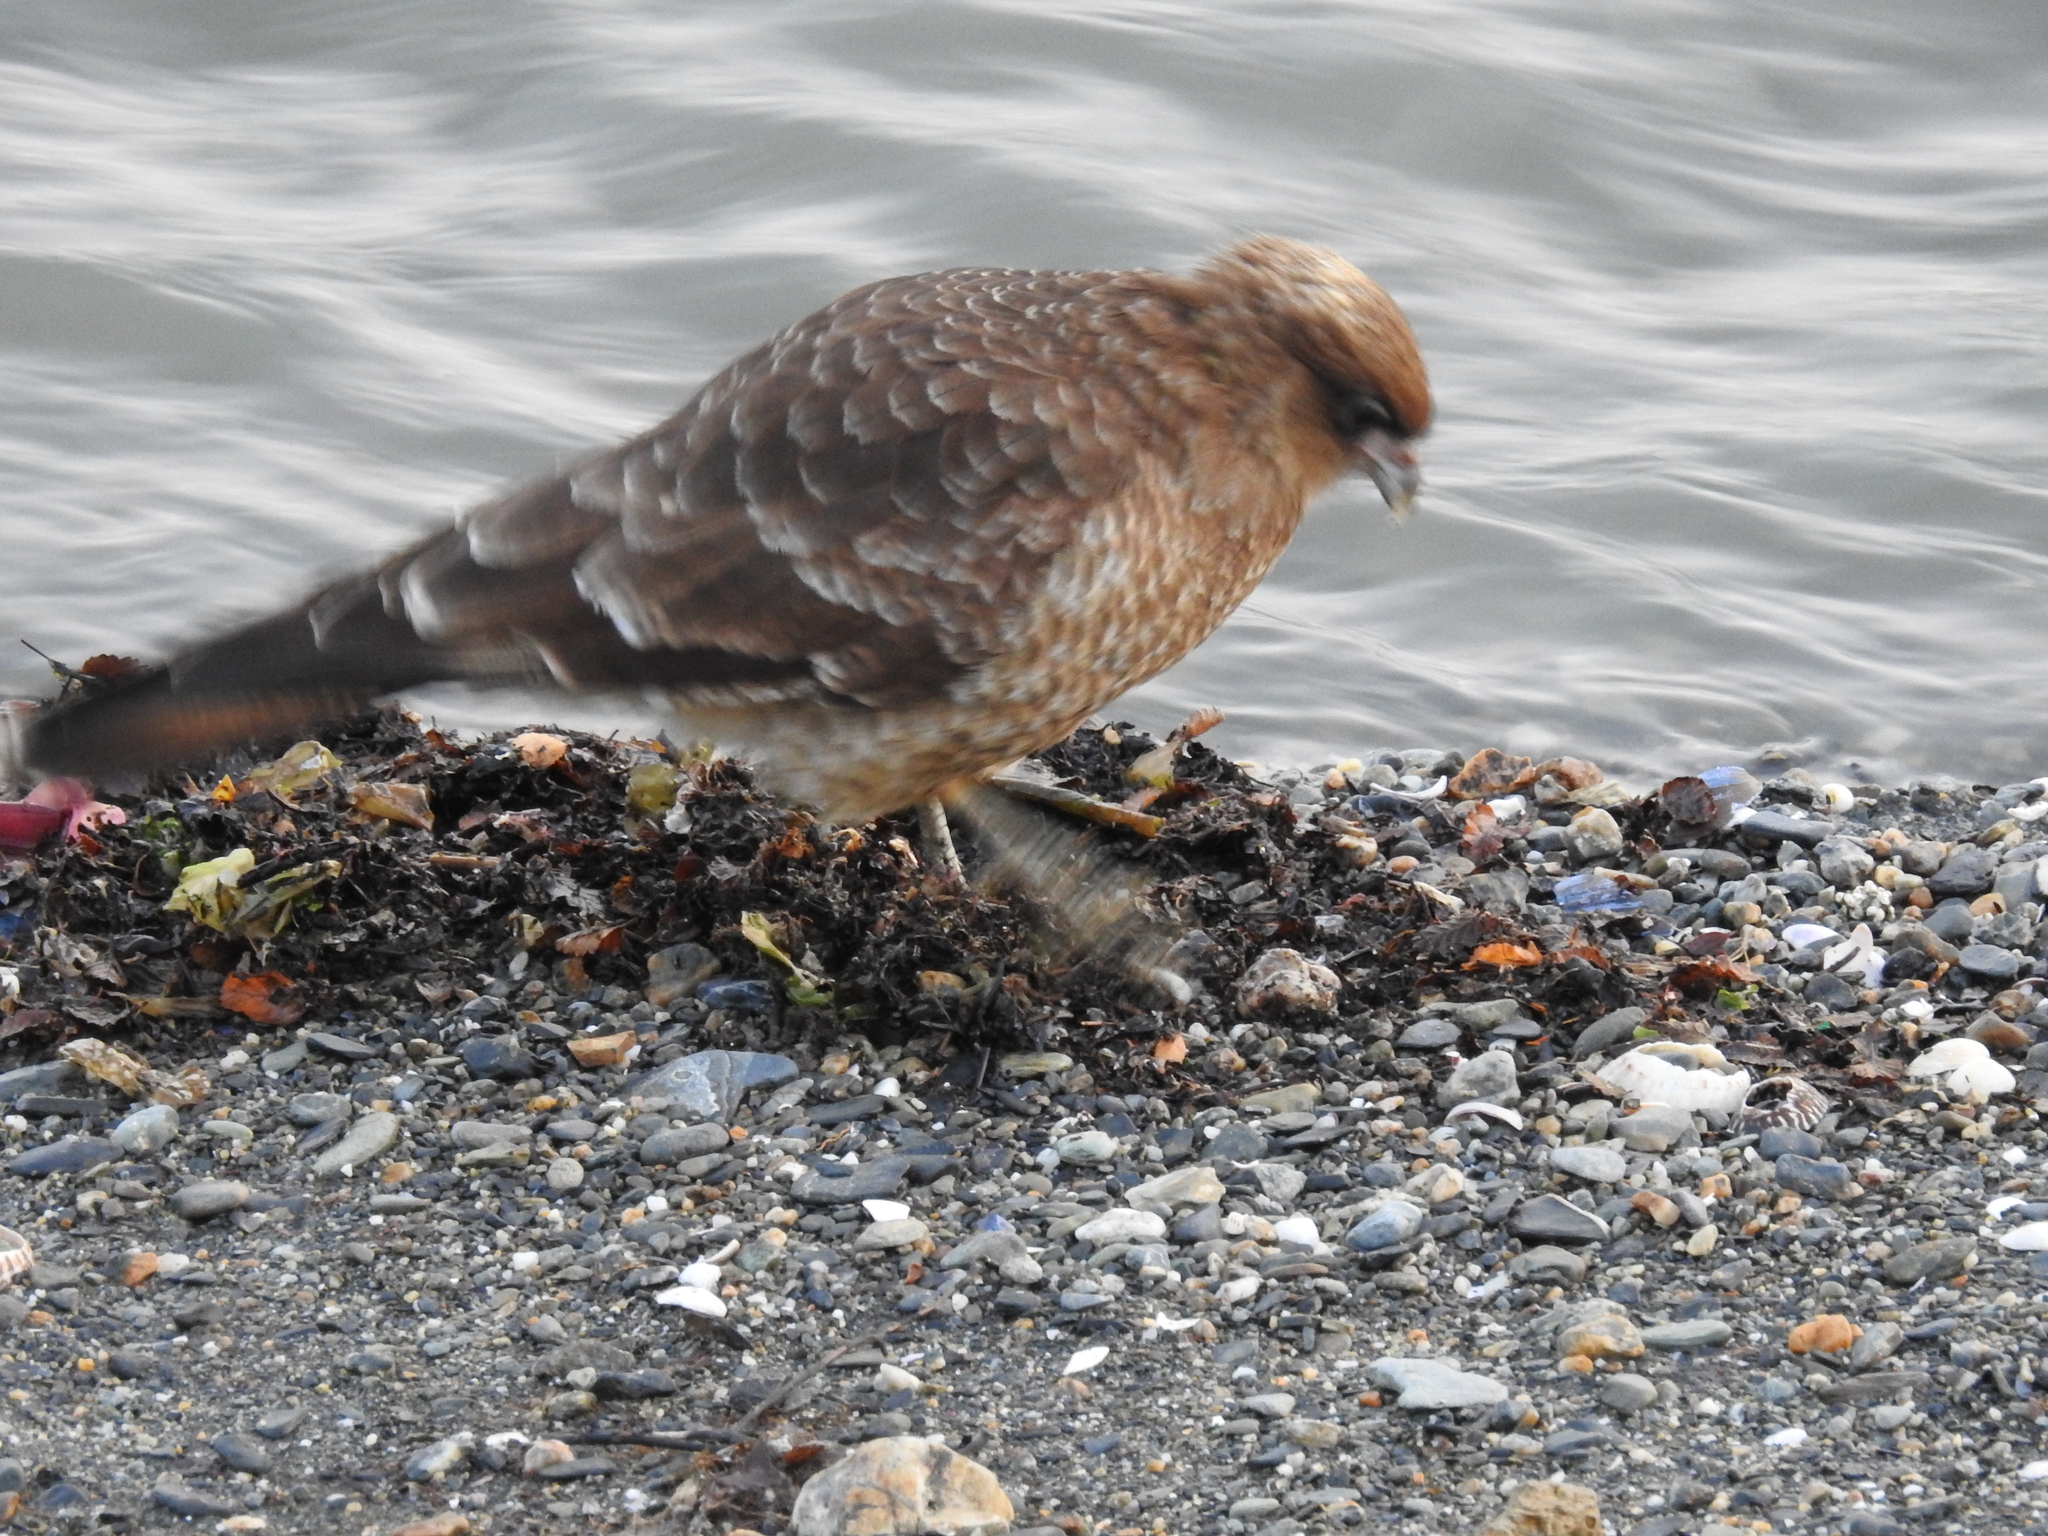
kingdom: Animalia
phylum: Chordata
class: Aves
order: Falconiformes
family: Falconidae
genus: Daptrius
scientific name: Daptrius
